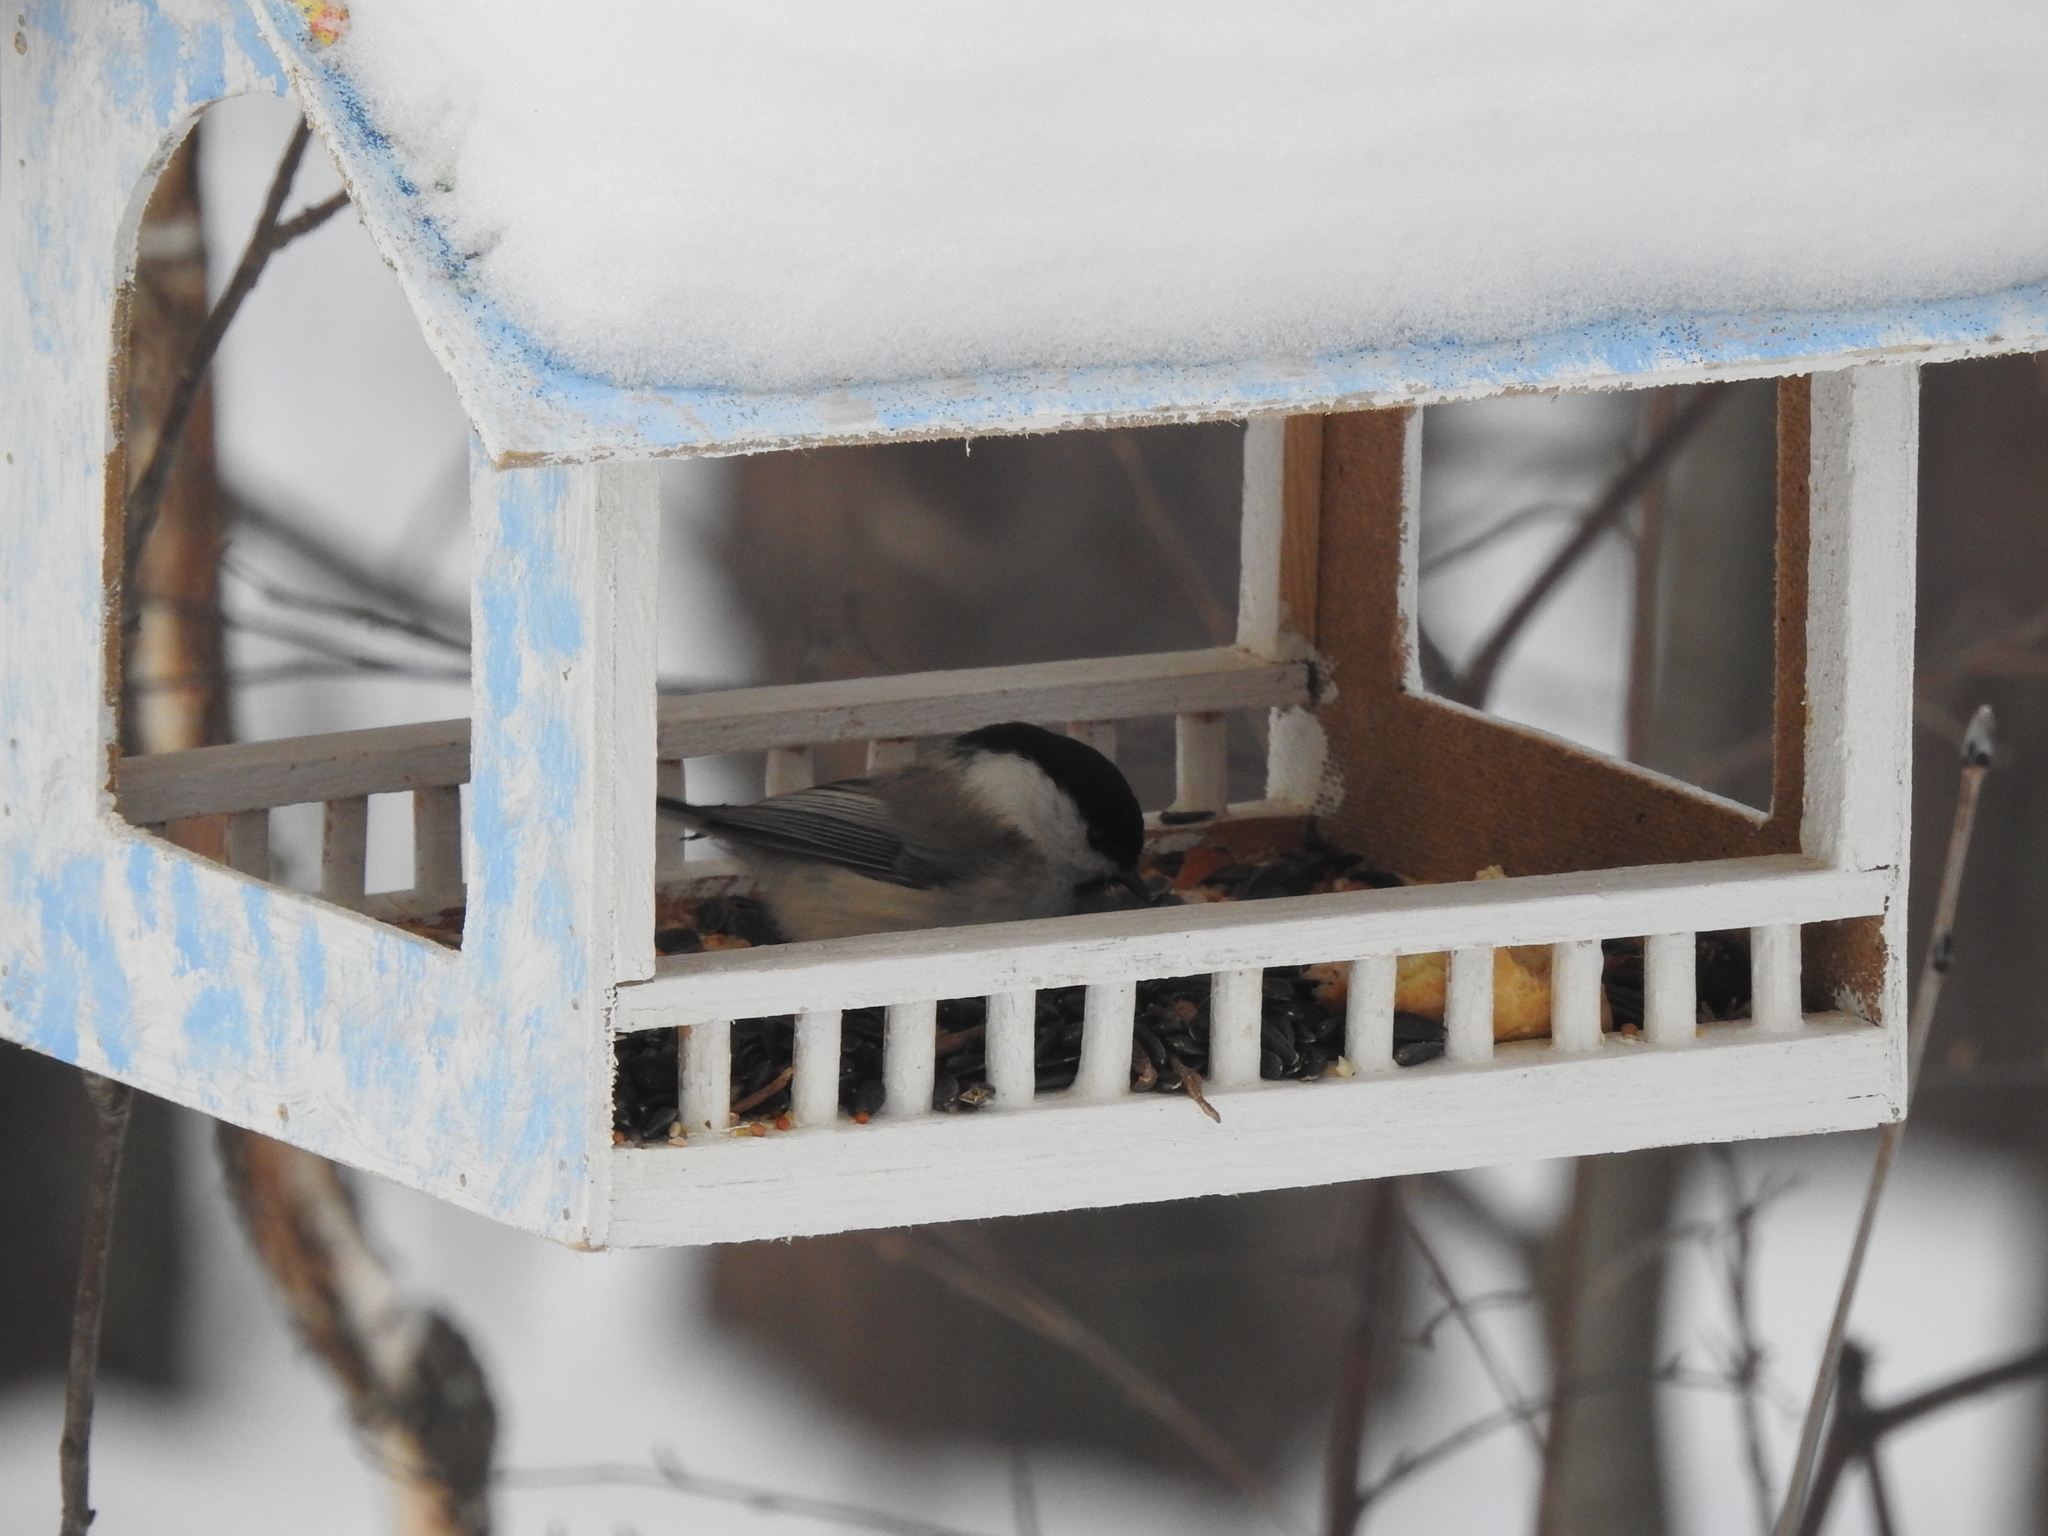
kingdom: Animalia
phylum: Chordata
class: Aves
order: Passeriformes
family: Paridae
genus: Poecile
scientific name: Poecile montanus
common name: Willow tit
